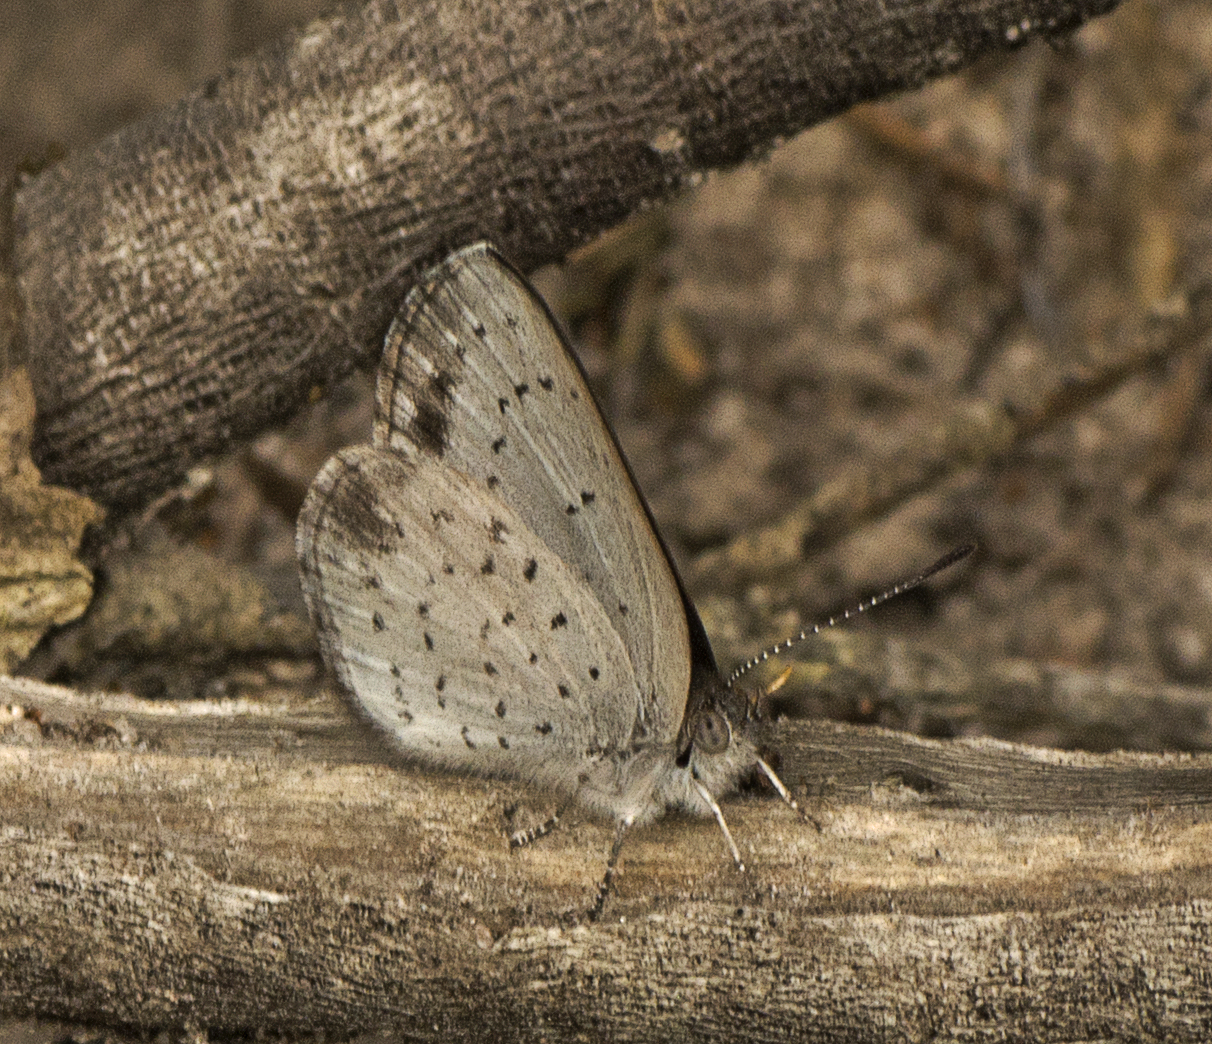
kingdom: Animalia
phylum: Arthropoda
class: Insecta
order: Lepidoptera
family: Lycaenidae
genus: Candalides
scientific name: Candalides
